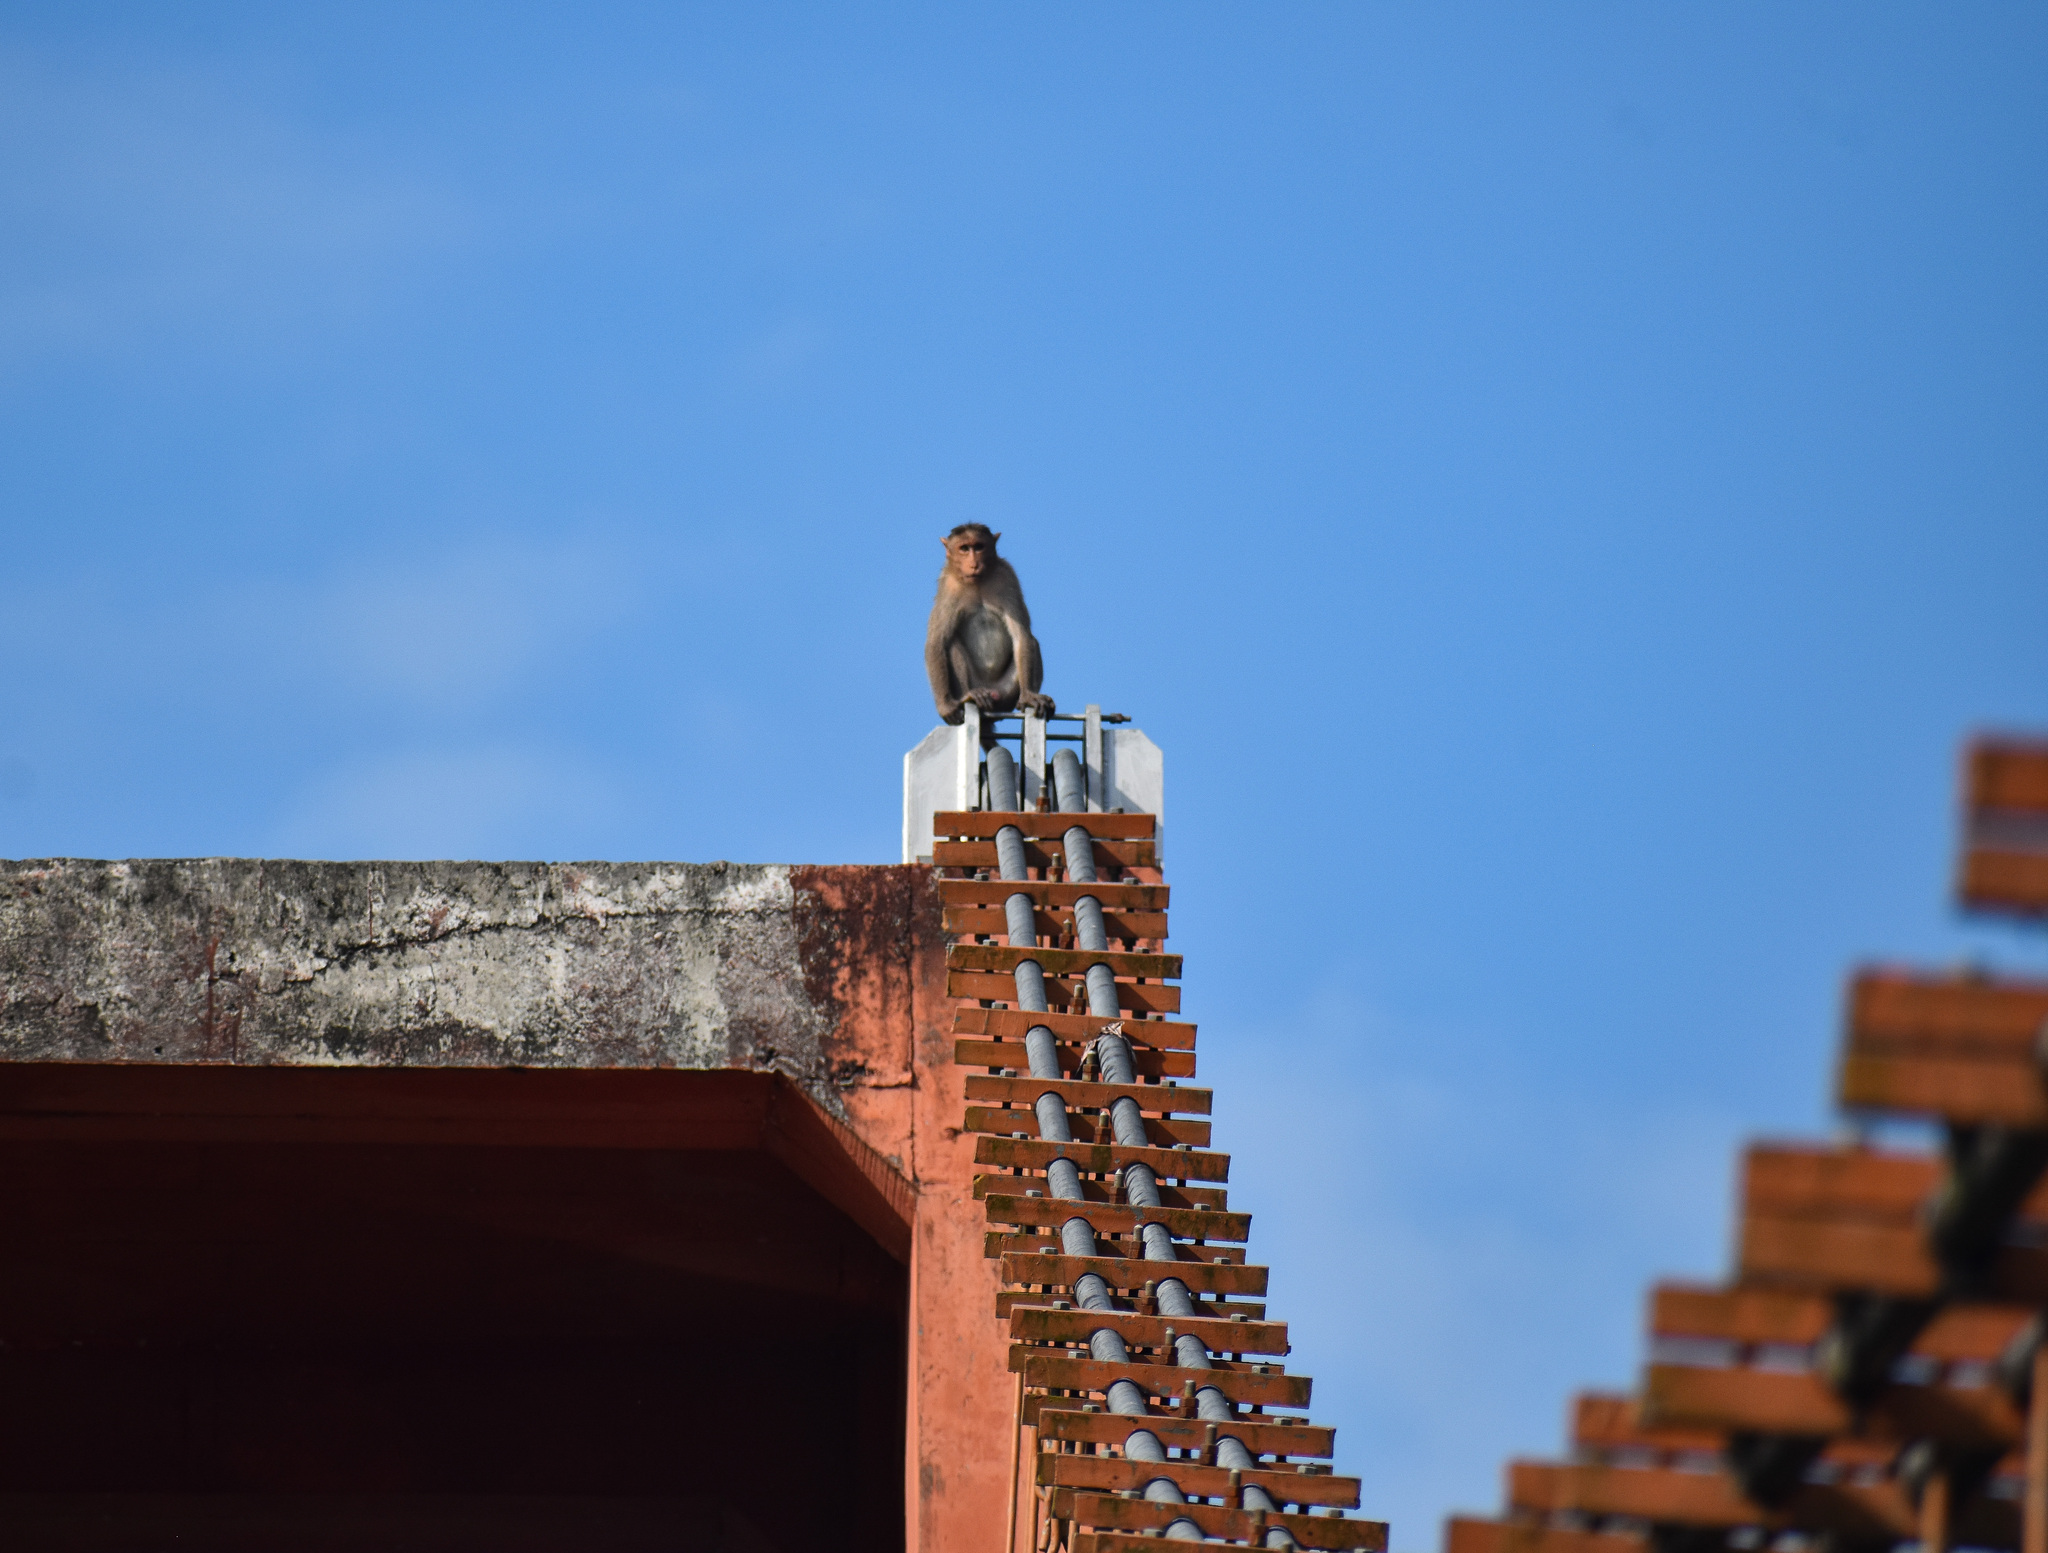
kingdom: Animalia
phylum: Chordata
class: Mammalia
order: Primates
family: Cercopithecidae
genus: Macaca
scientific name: Macaca radiata
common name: Bonnet macaque
